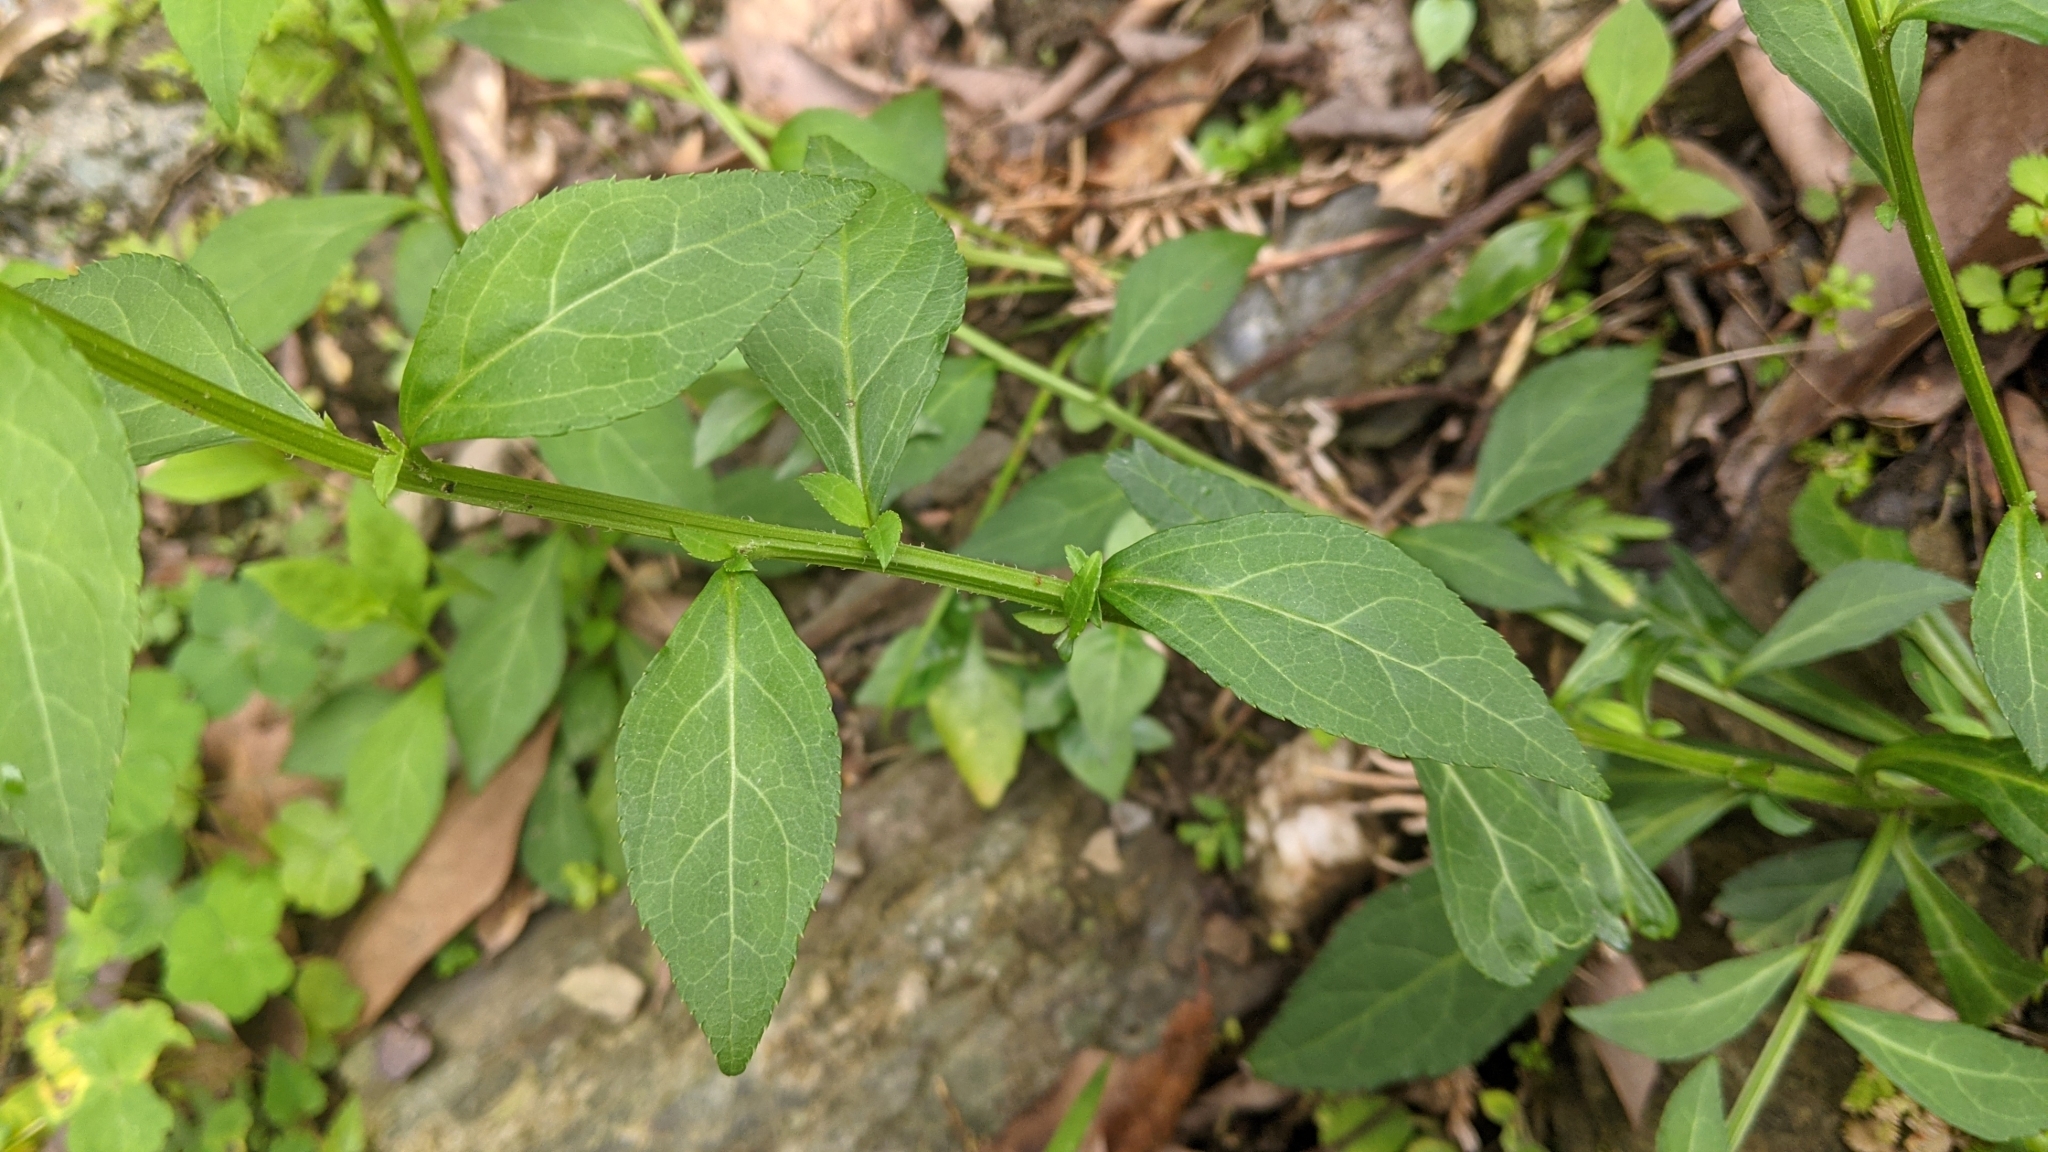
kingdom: Plantae
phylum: Tracheophyta
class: Magnoliopsida
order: Lamiales
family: Plantaginaceae
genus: Veronicastrum
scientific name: Veronicastrum loshanense
